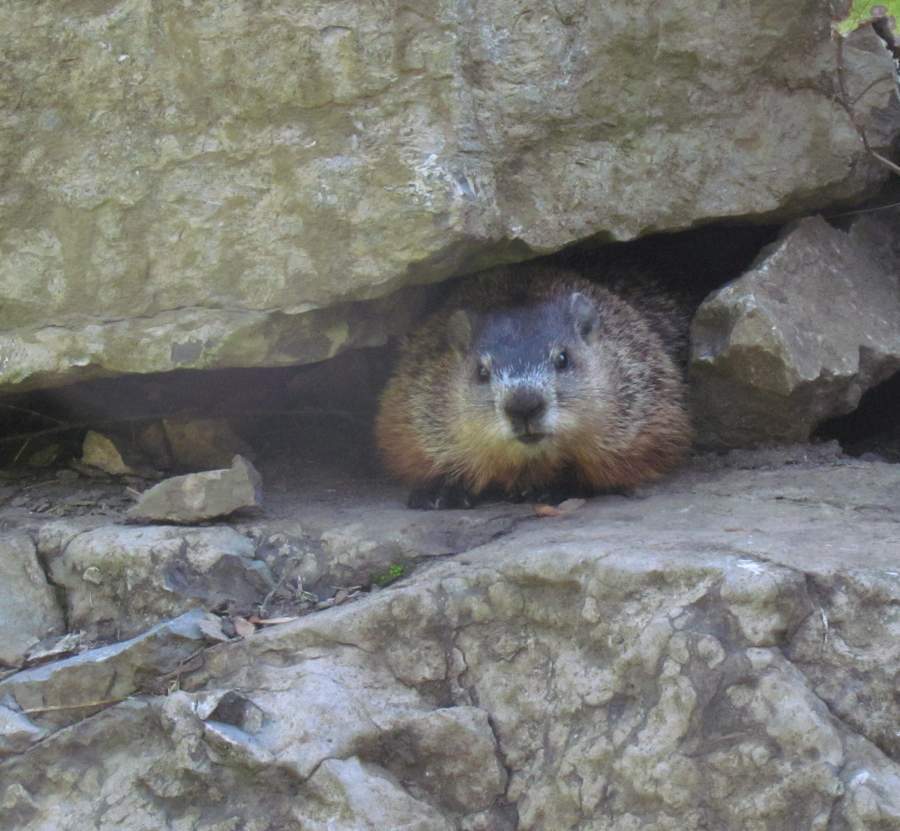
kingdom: Animalia
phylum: Chordata
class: Mammalia
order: Rodentia
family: Sciuridae
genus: Marmota
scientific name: Marmota monax
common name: Groundhog
